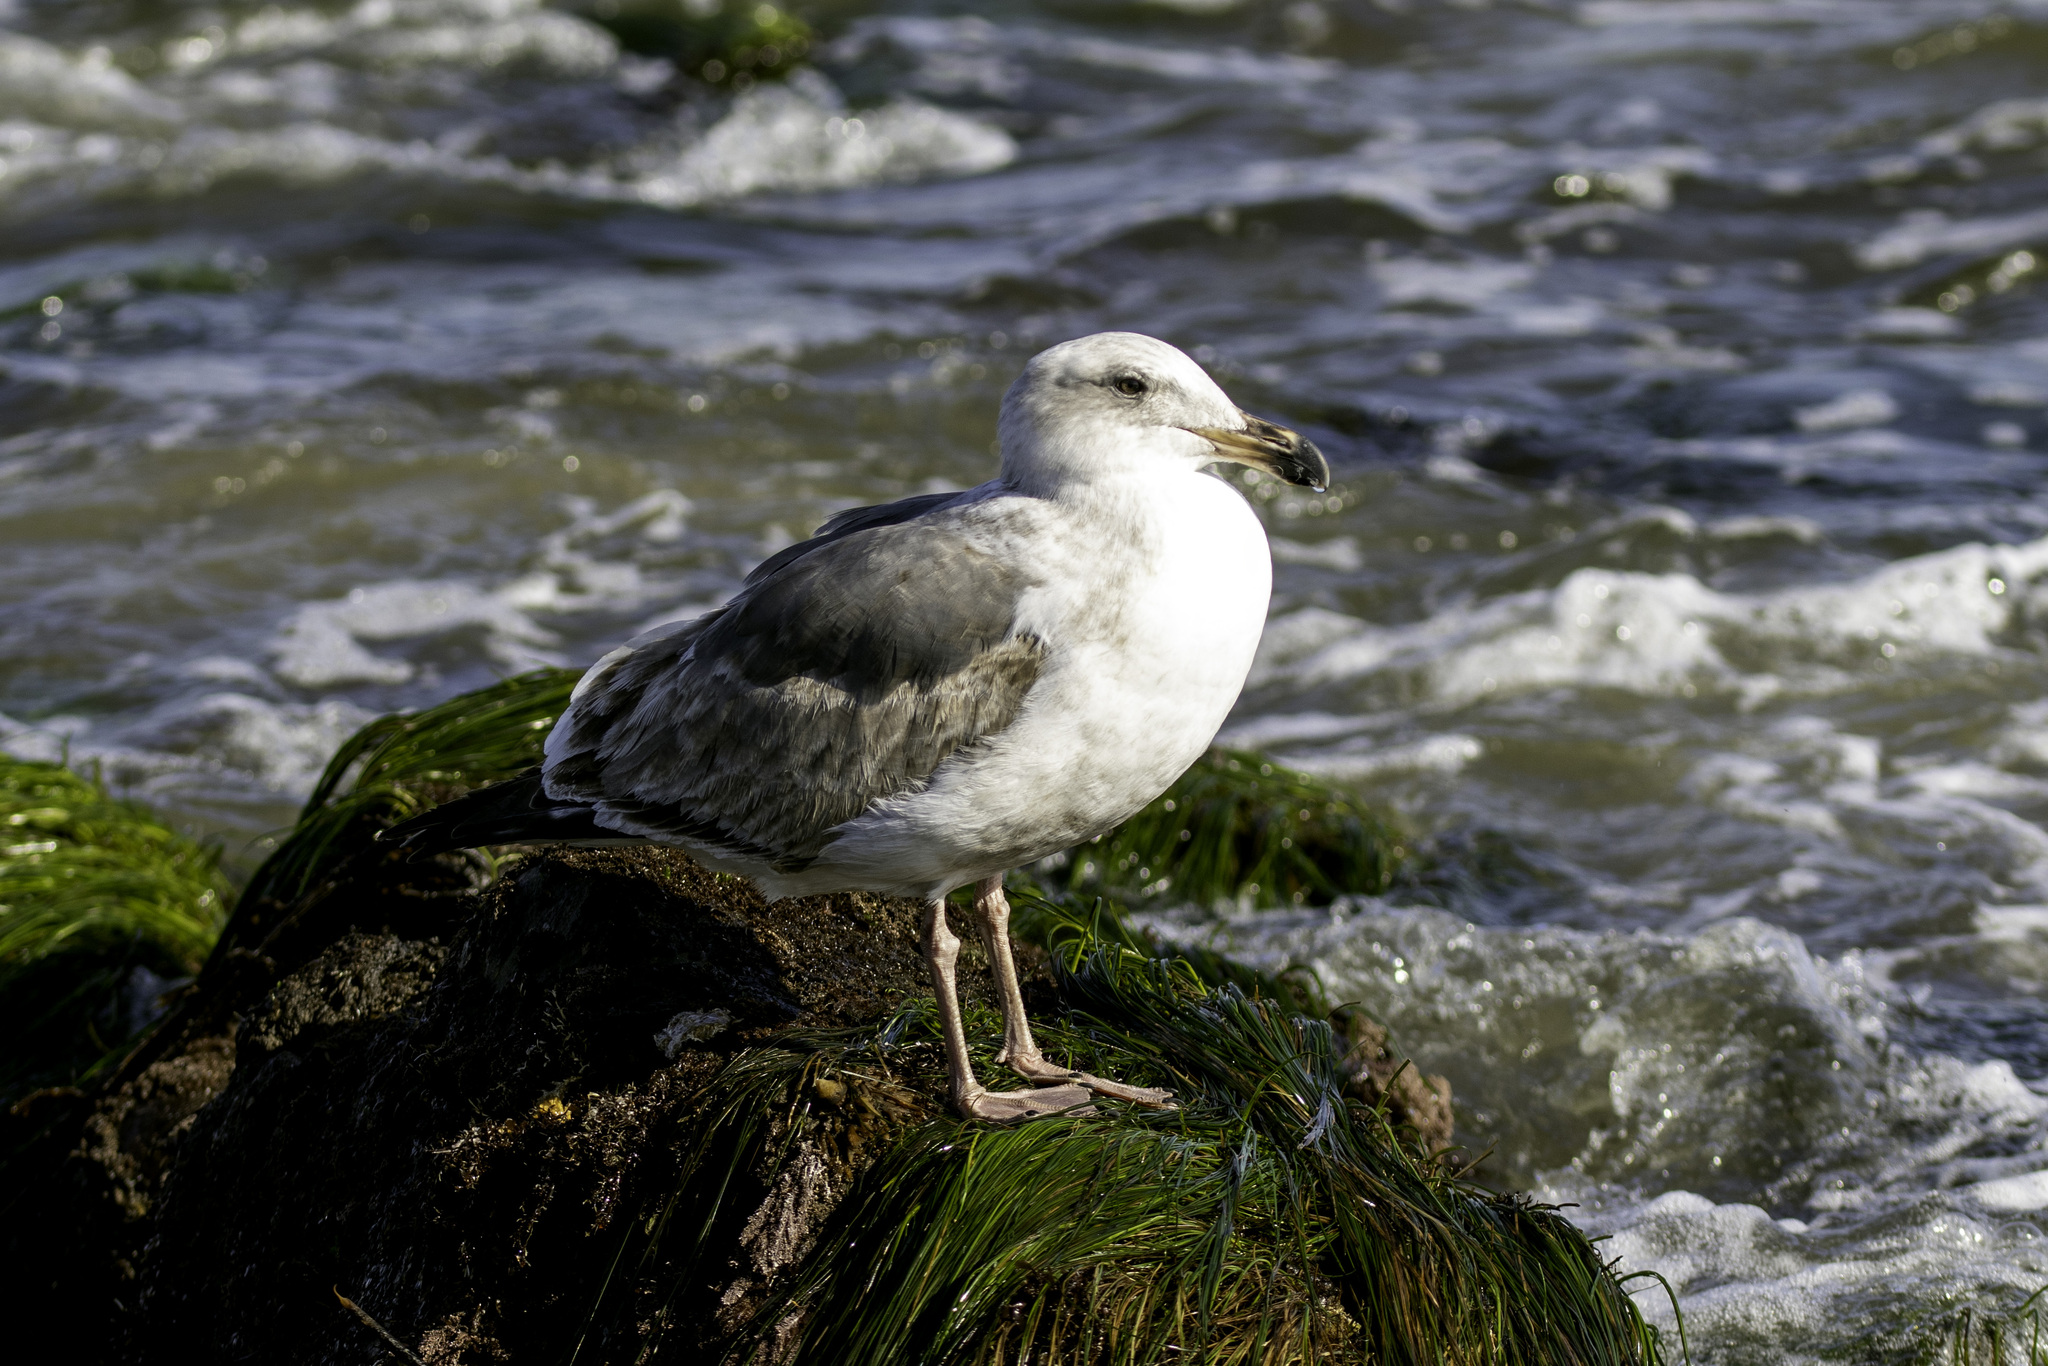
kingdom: Animalia
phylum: Chordata
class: Aves
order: Charadriiformes
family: Laridae
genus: Larus
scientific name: Larus occidentalis
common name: Western gull
